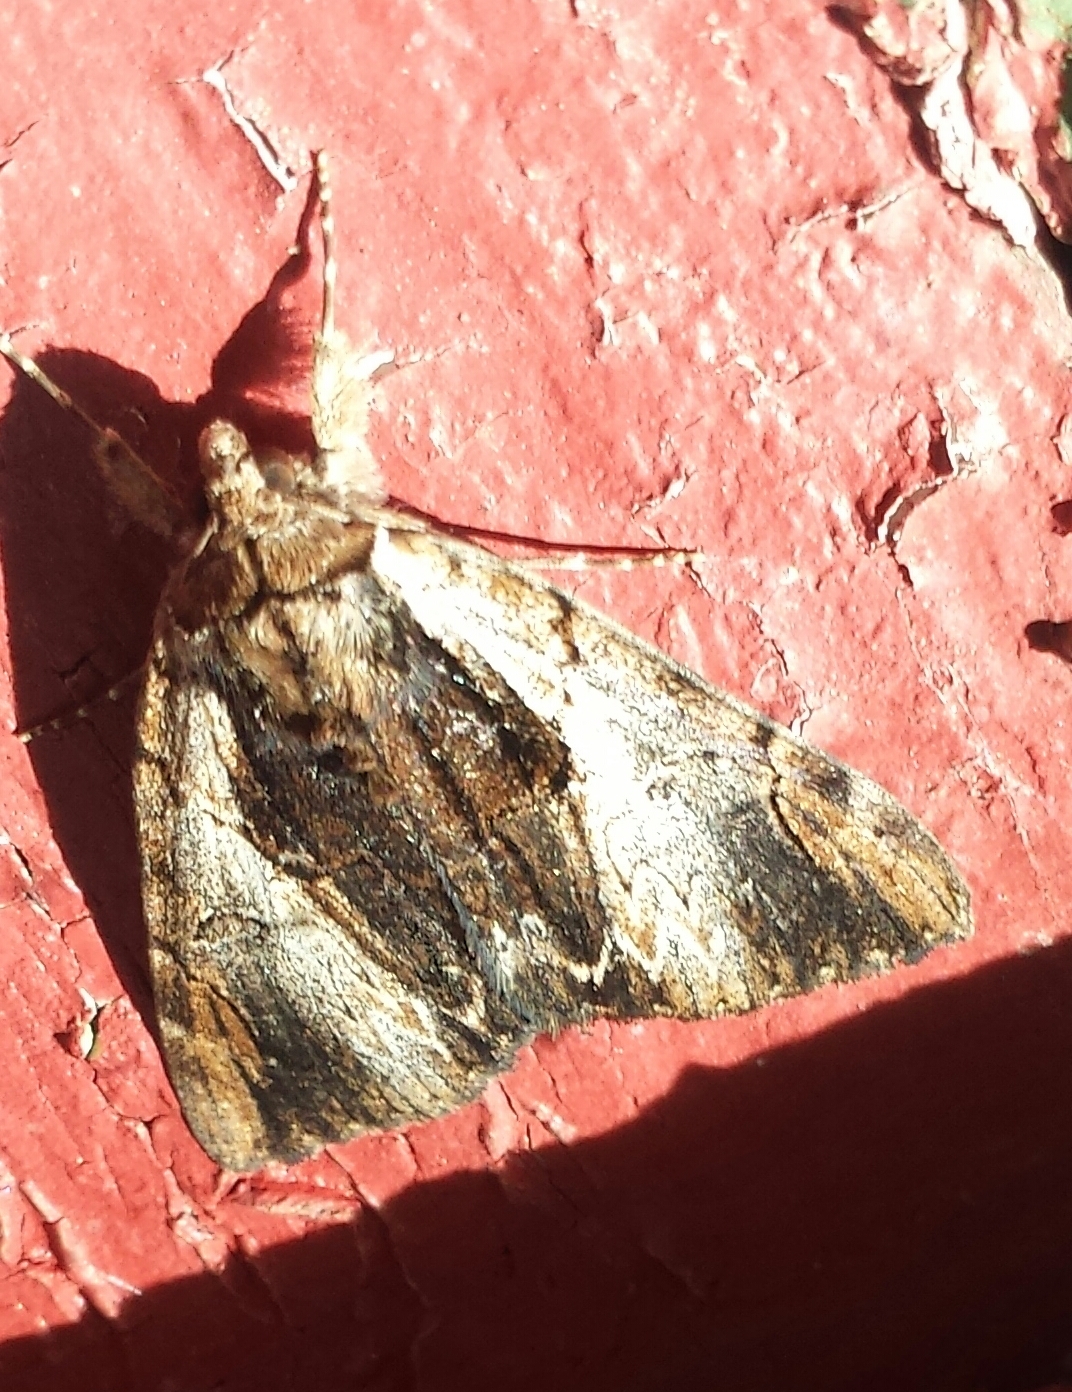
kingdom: Animalia
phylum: Arthropoda
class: Insecta
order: Lepidoptera
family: Erebidae
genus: Catocala
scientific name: Catocala ultronia
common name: Ultronia underwing
